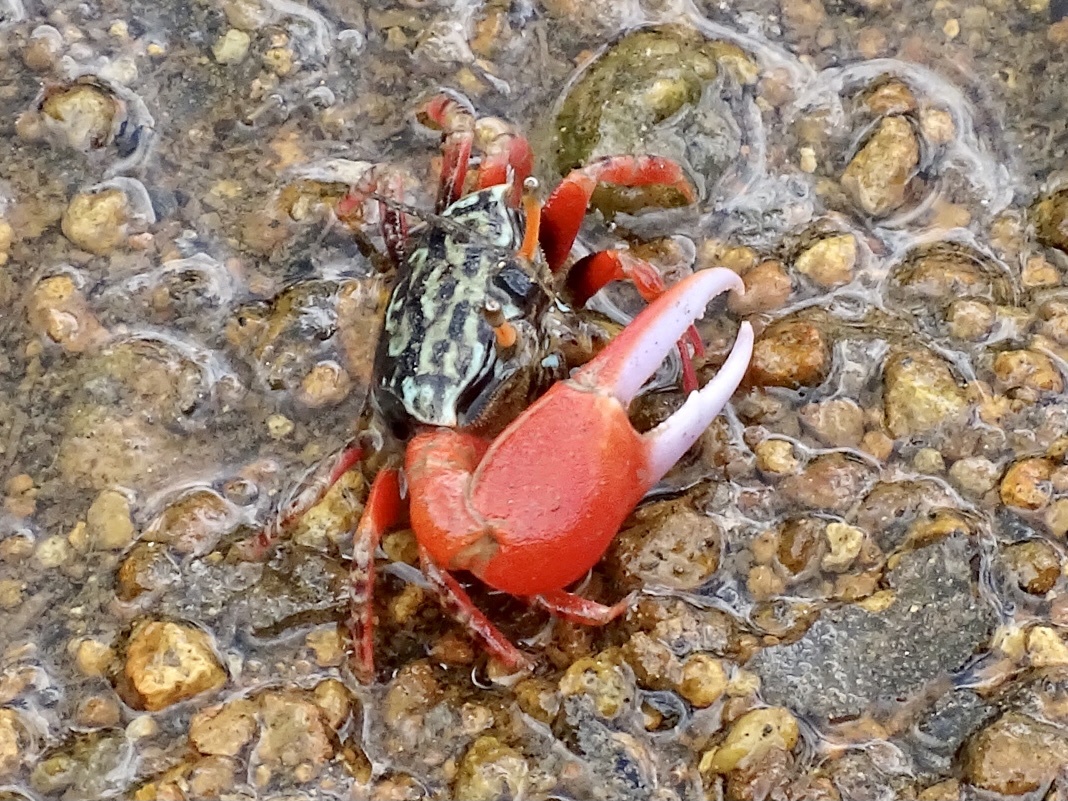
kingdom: Animalia
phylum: Arthropoda
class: Malacostraca
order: Decapoda
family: Ocypodidae
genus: Paraleptuca
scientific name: Paraleptuca splendida
